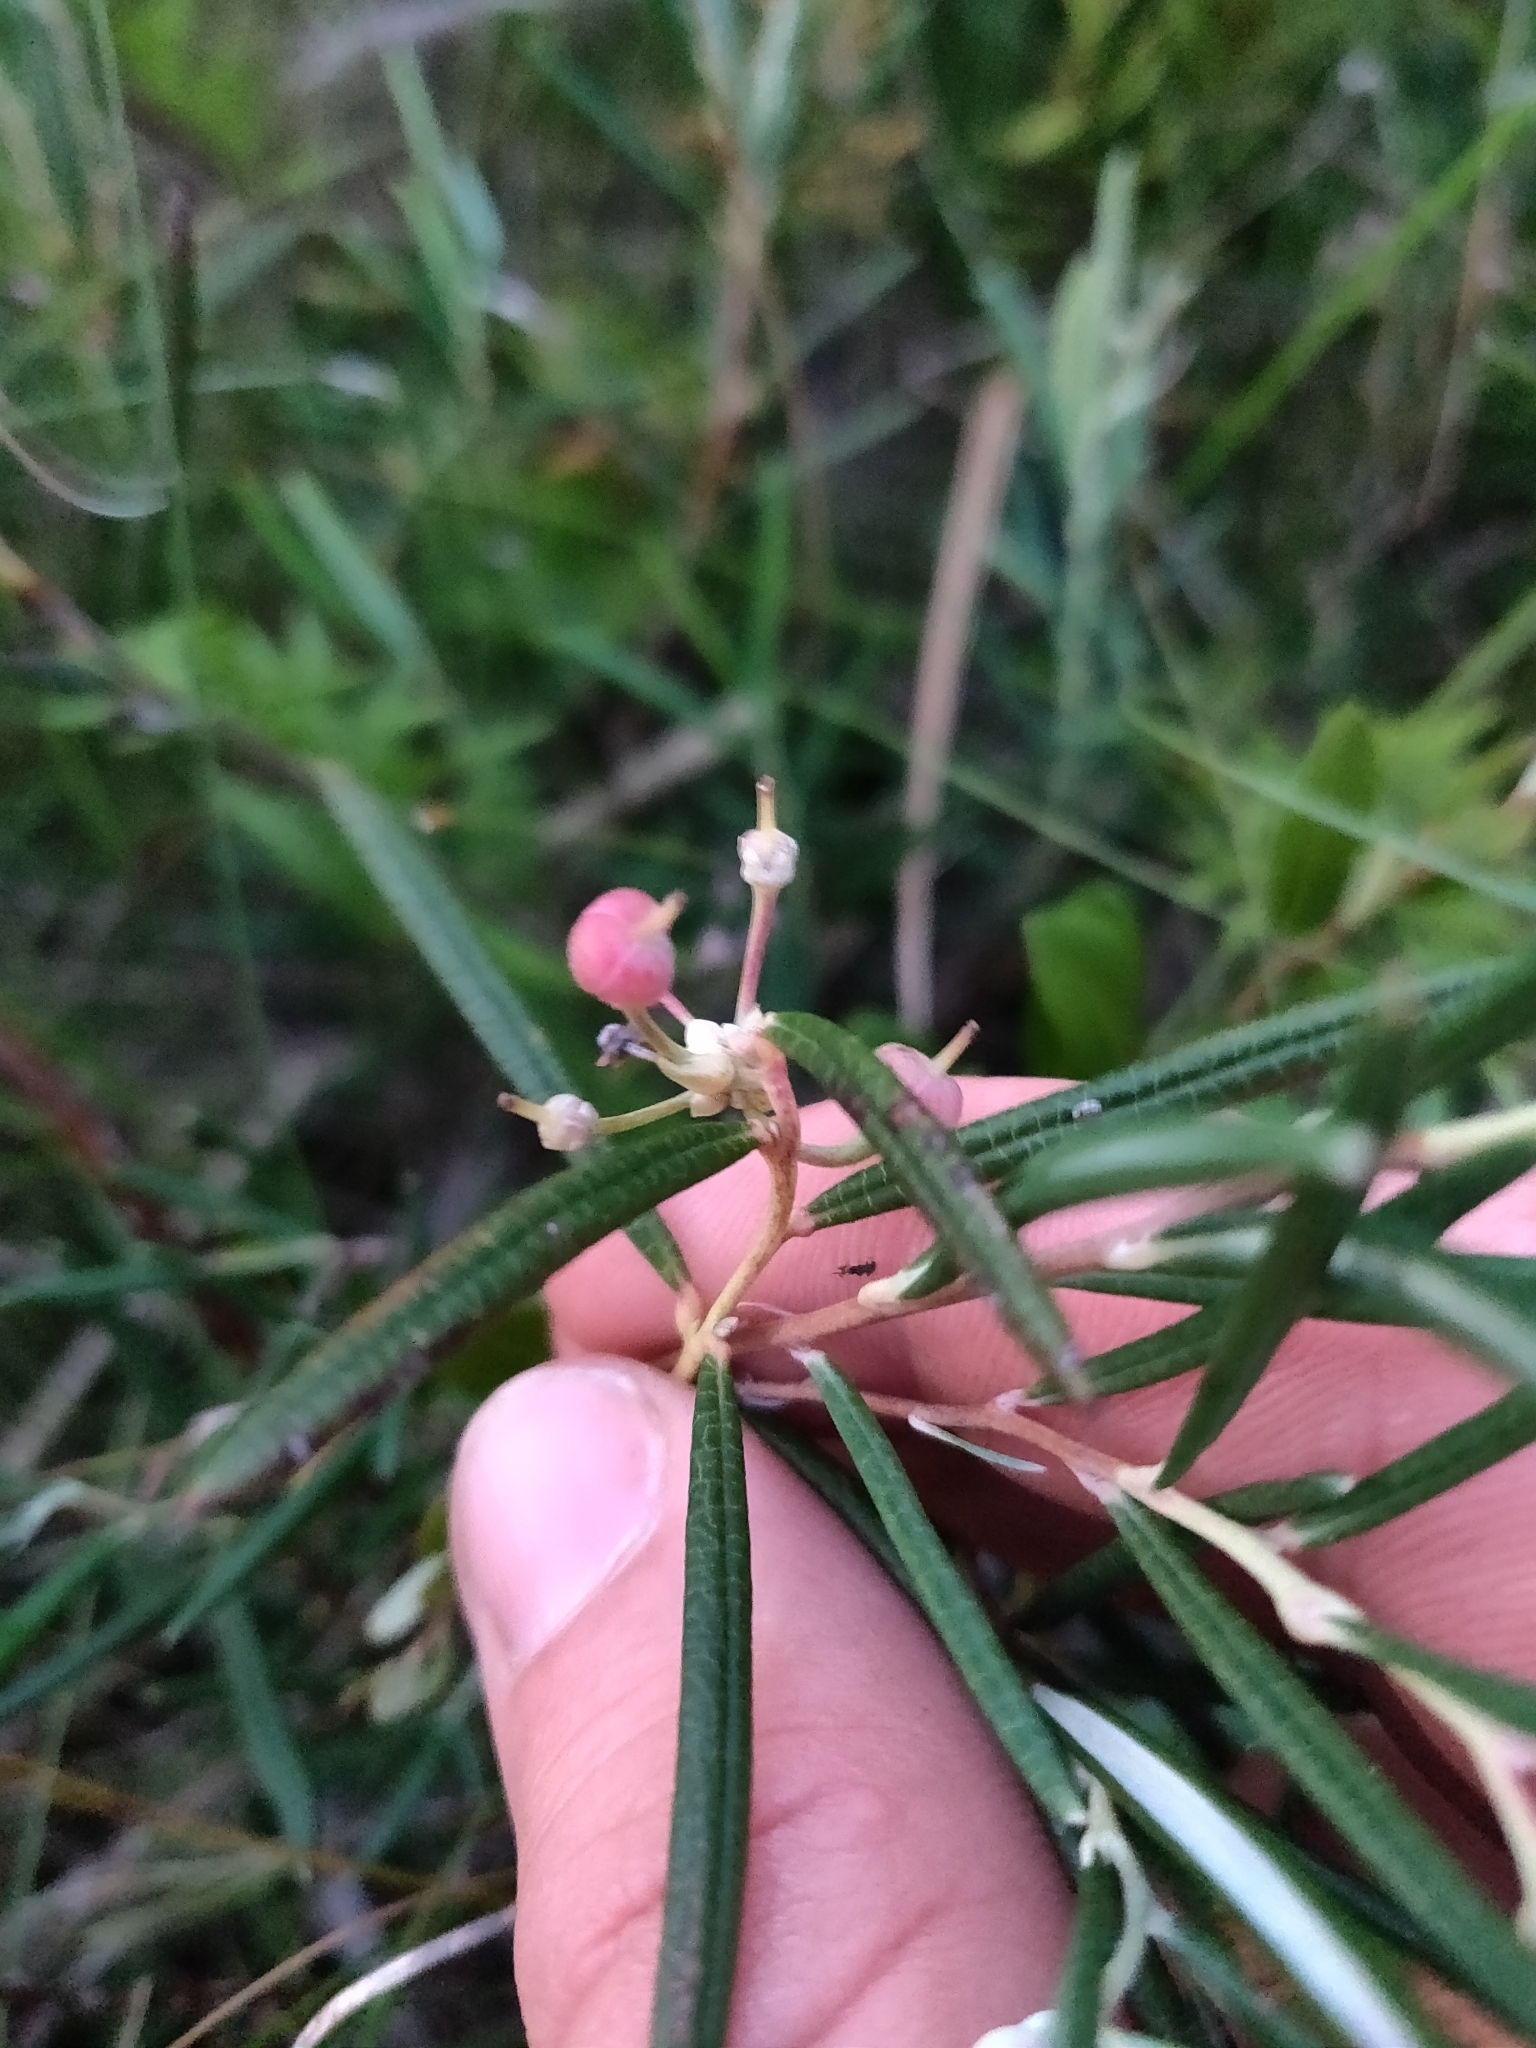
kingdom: Plantae
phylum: Tracheophyta
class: Magnoliopsida
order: Ericales
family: Ericaceae
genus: Andromeda
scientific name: Andromeda polifolia
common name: Bog-rosemary
